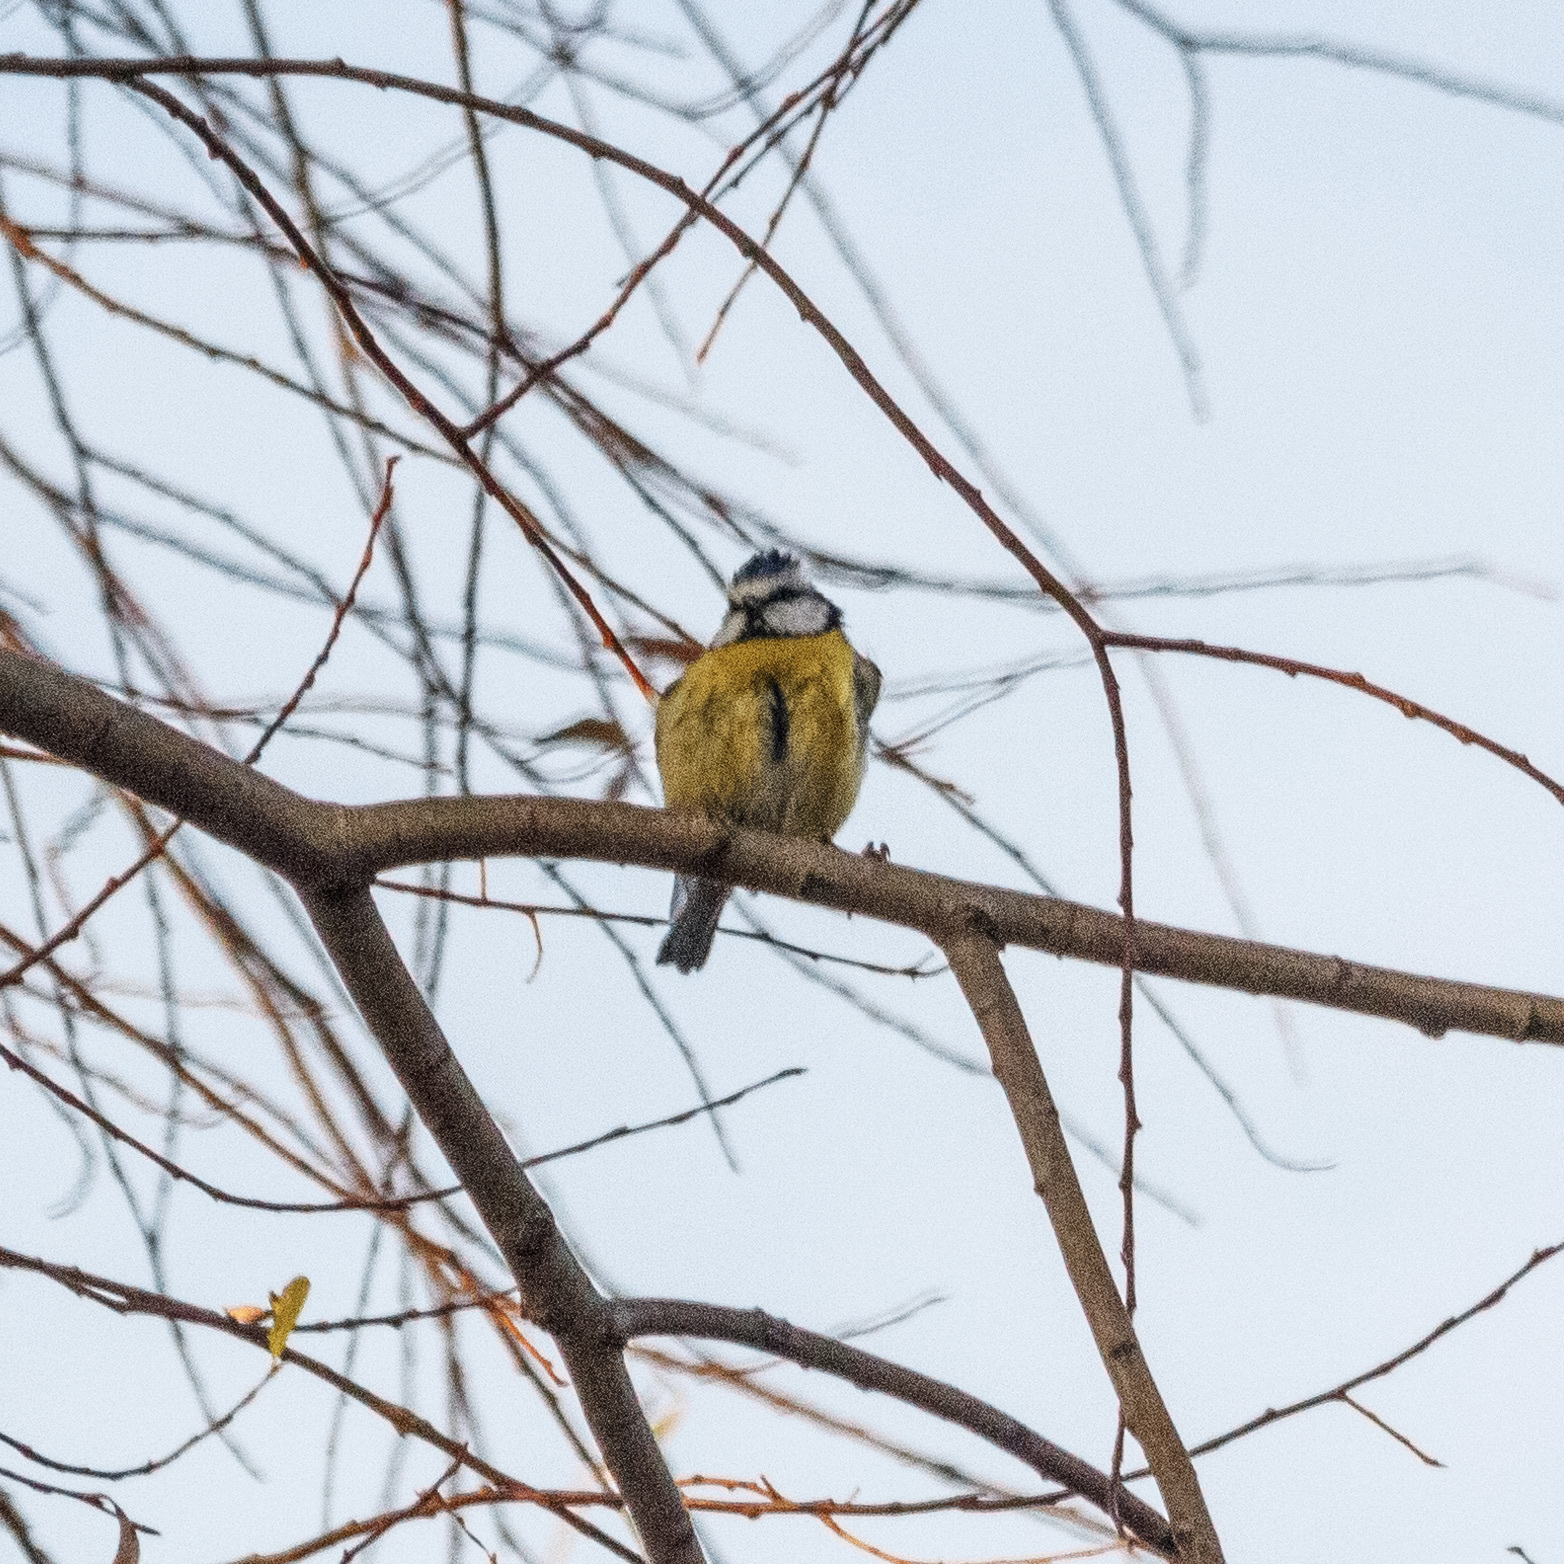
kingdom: Animalia
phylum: Chordata
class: Aves
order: Passeriformes
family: Paridae
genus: Cyanistes
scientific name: Cyanistes caeruleus
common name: Eurasian blue tit
